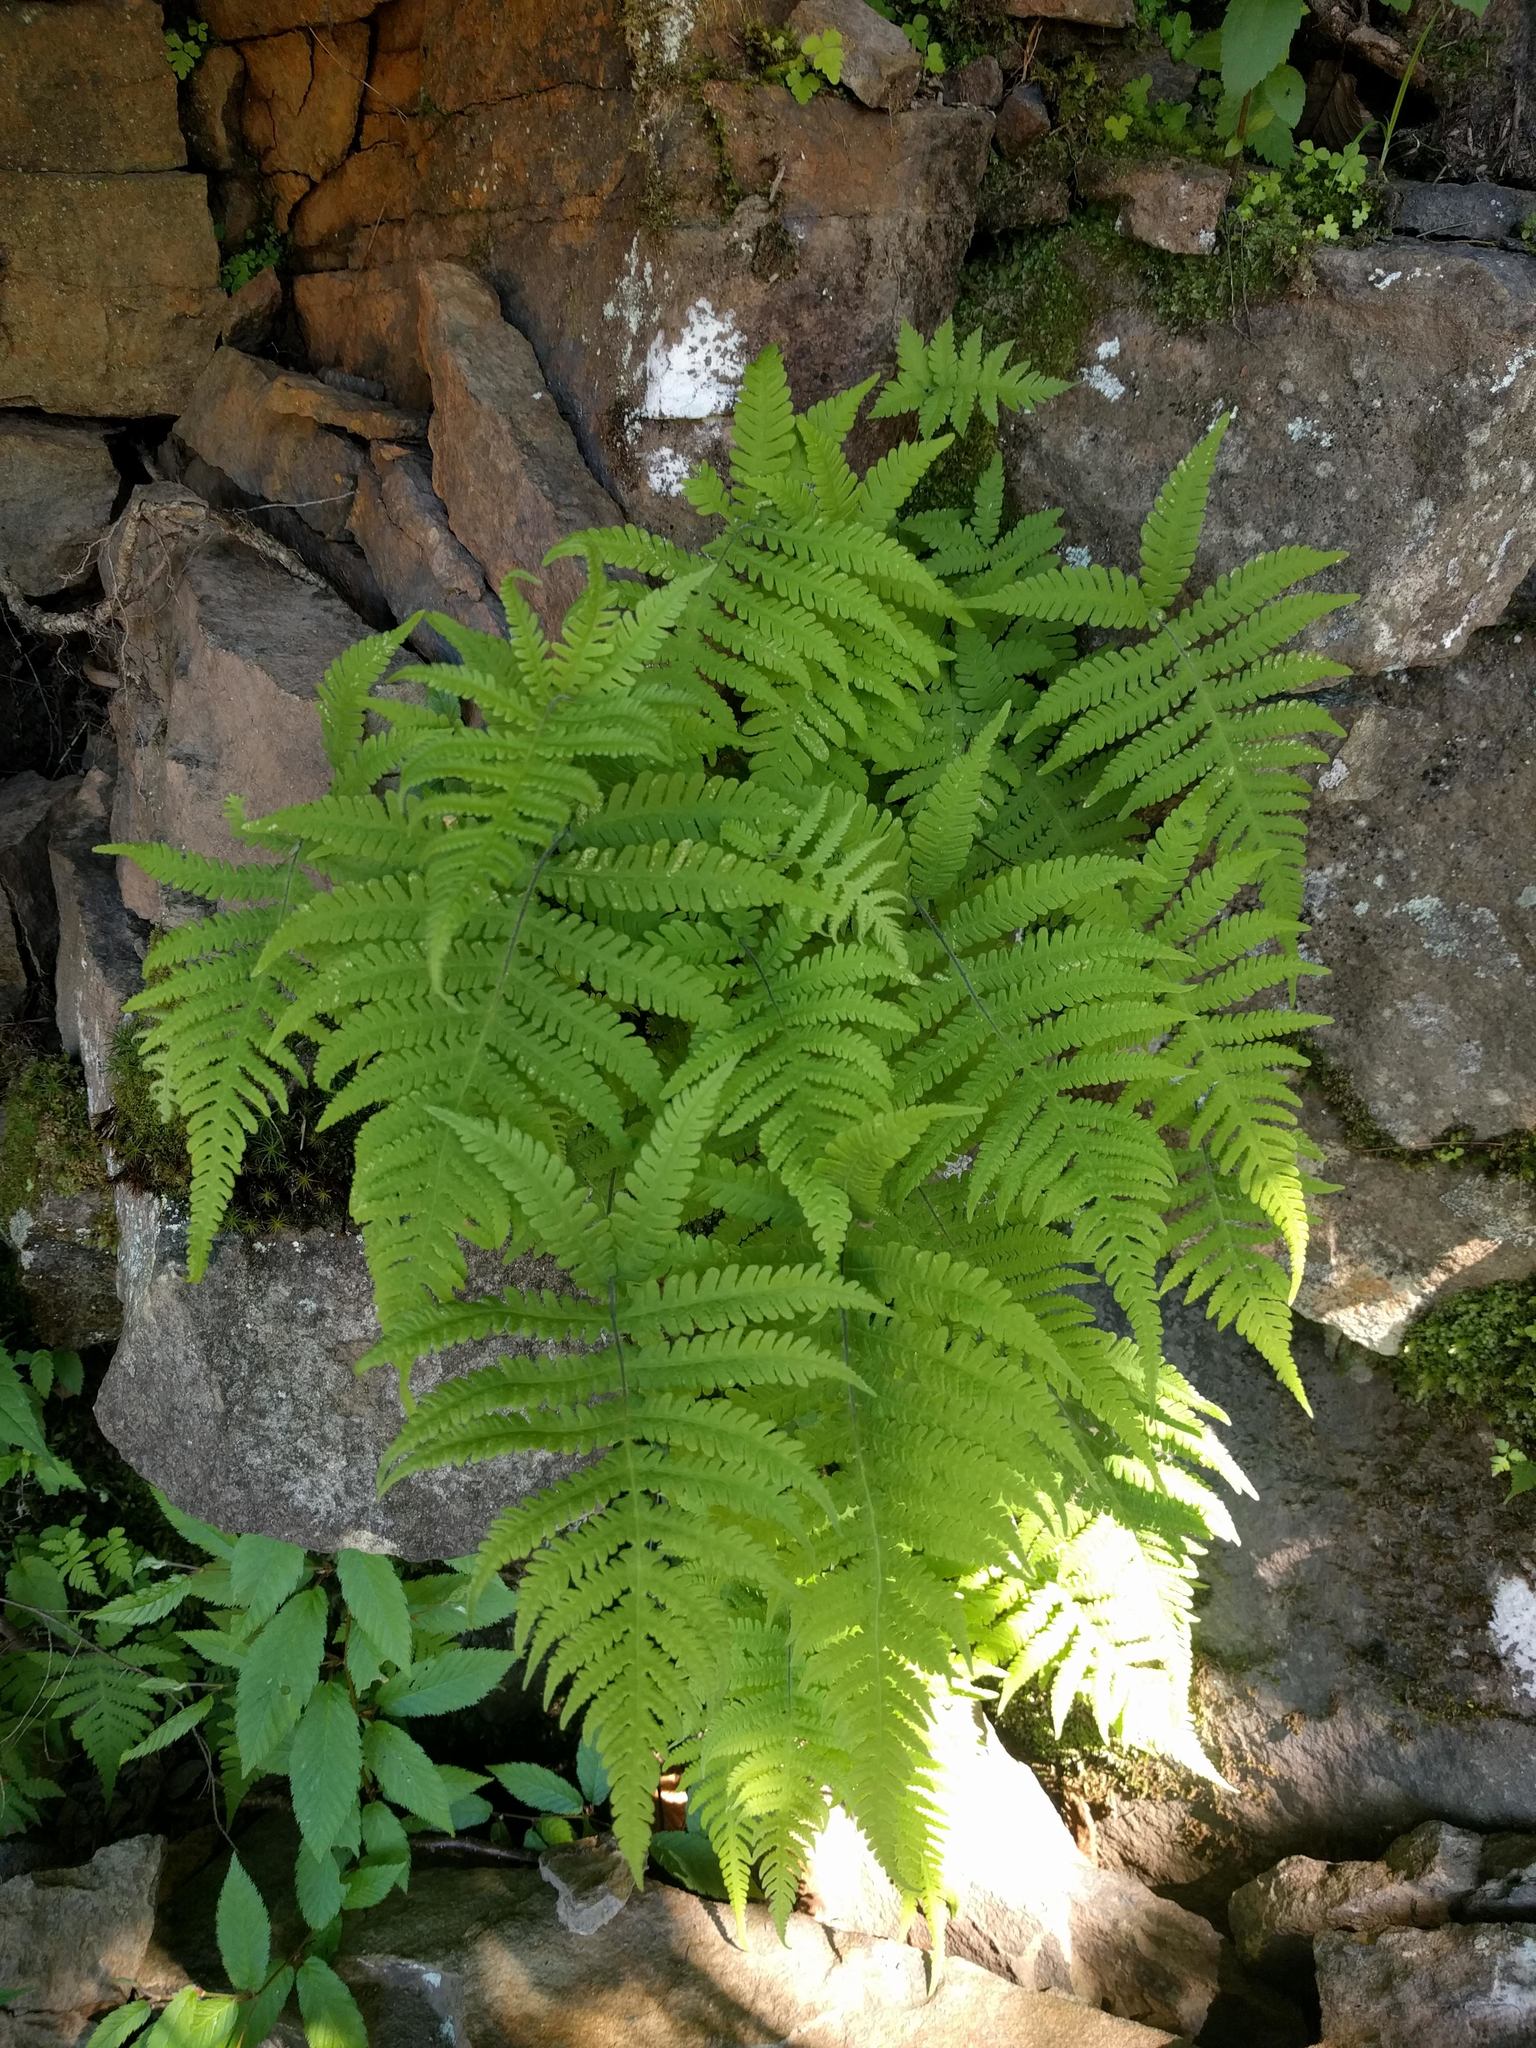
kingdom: Plantae
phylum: Tracheophyta
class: Polypodiopsida
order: Polypodiales
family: Thelypteridaceae
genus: Phegopteris
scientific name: Phegopteris connectilis
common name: Beech fern
